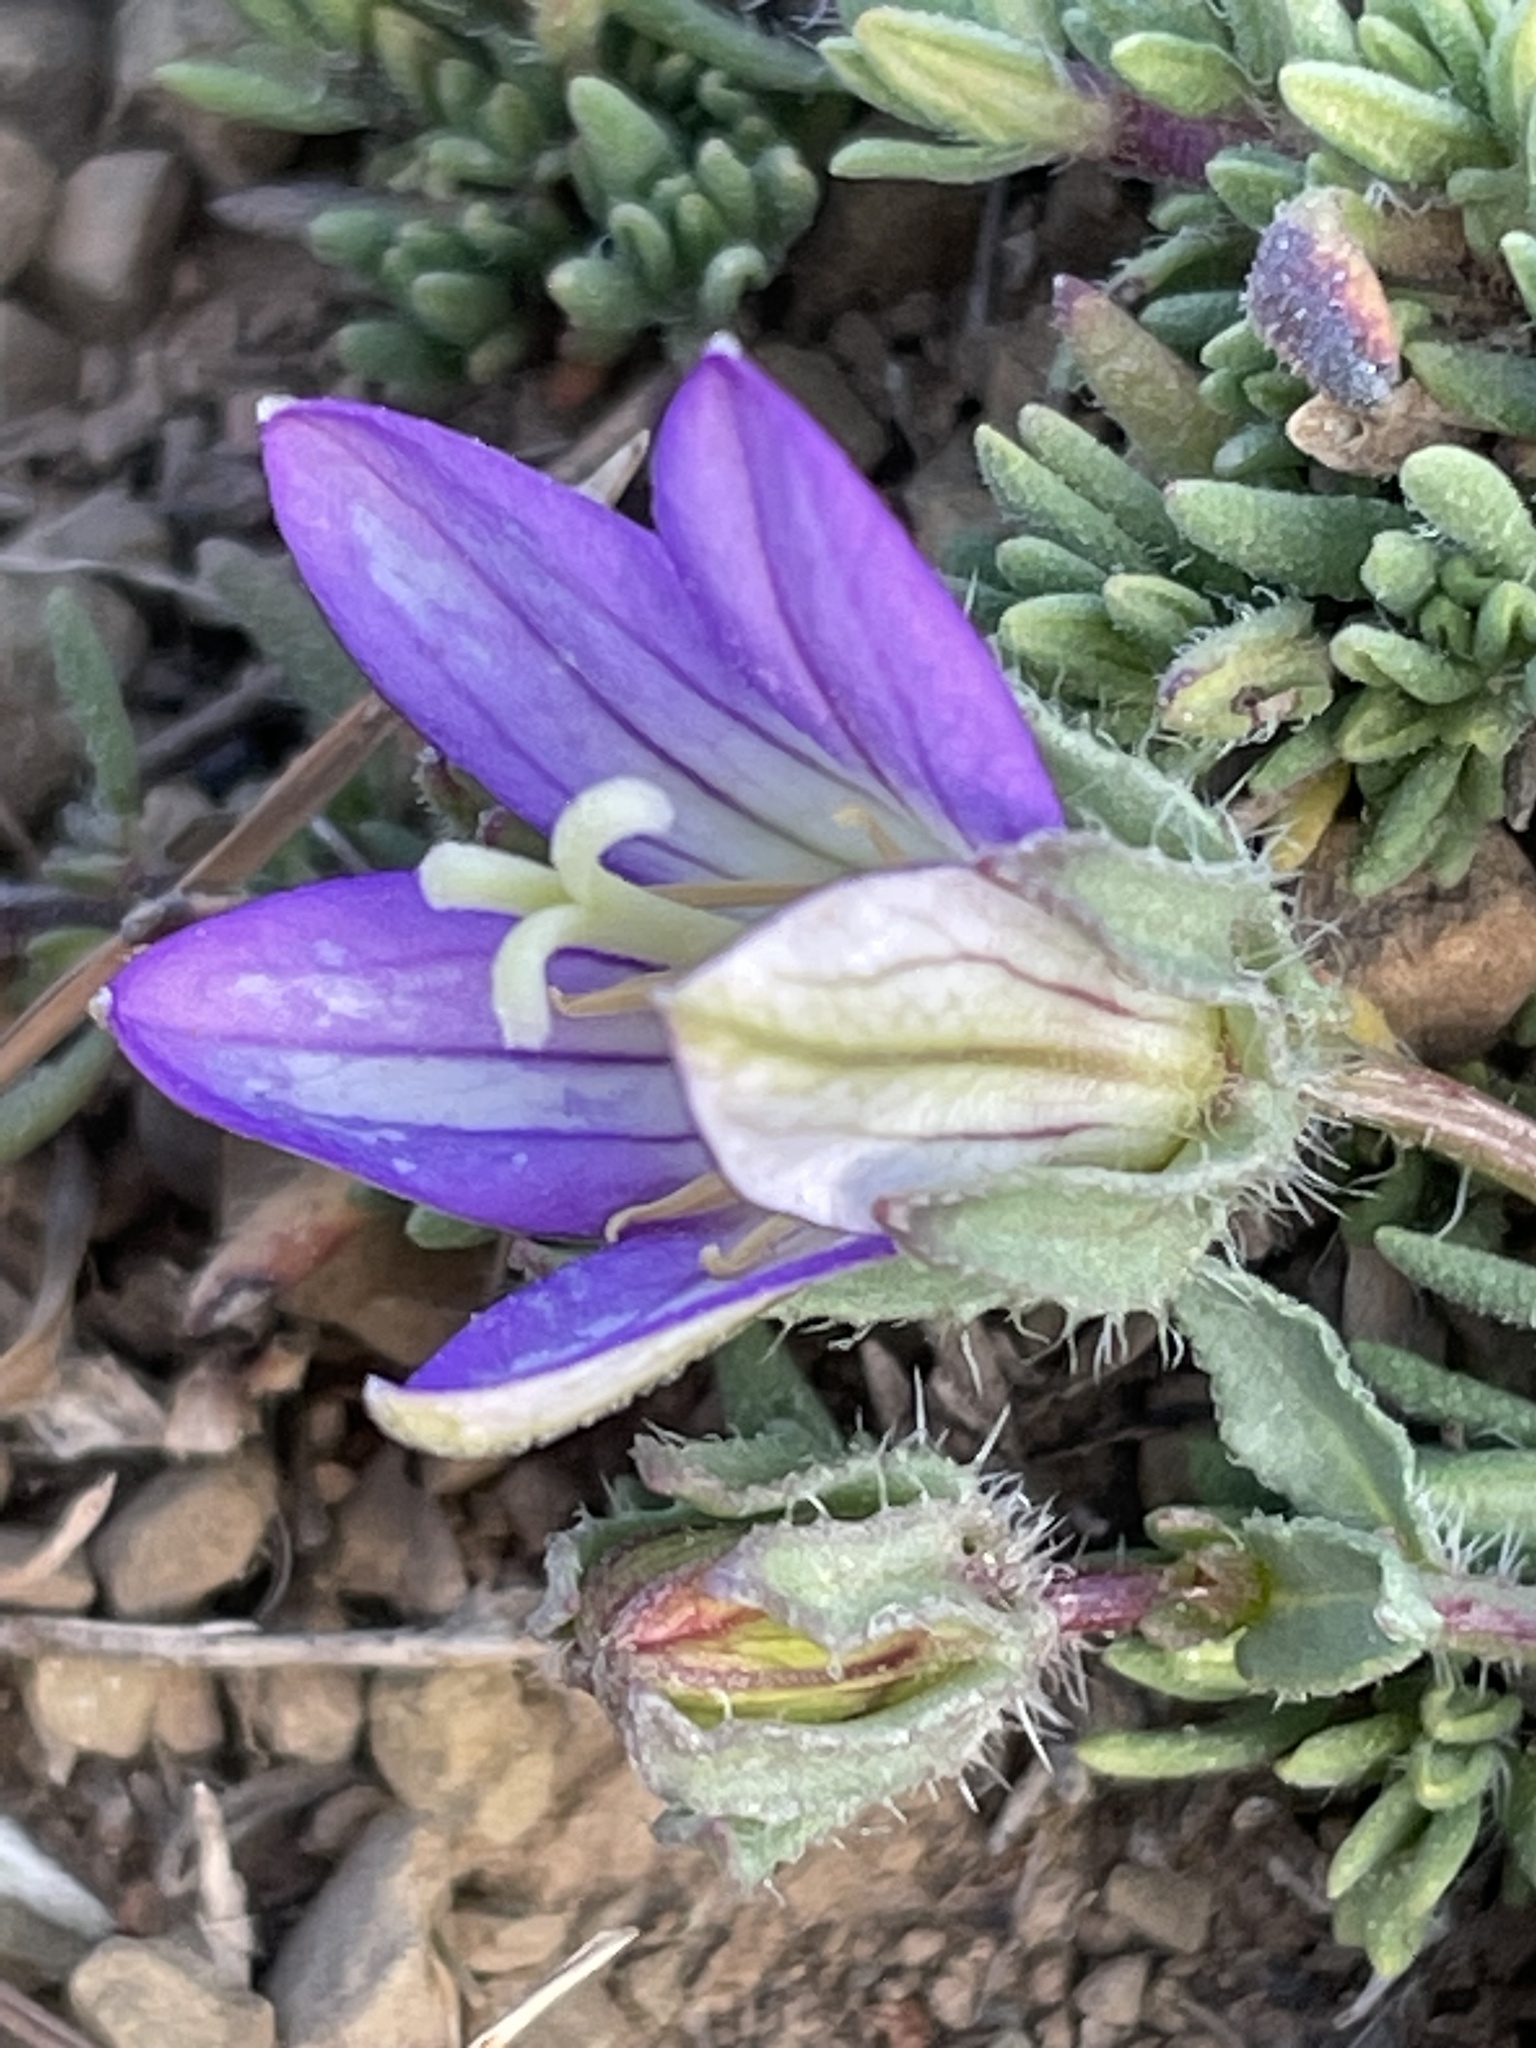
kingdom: Plantae
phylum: Tracheophyta
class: Magnoliopsida
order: Asterales
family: Campanulaceae
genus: Campanula
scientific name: Campanula filicaulis
